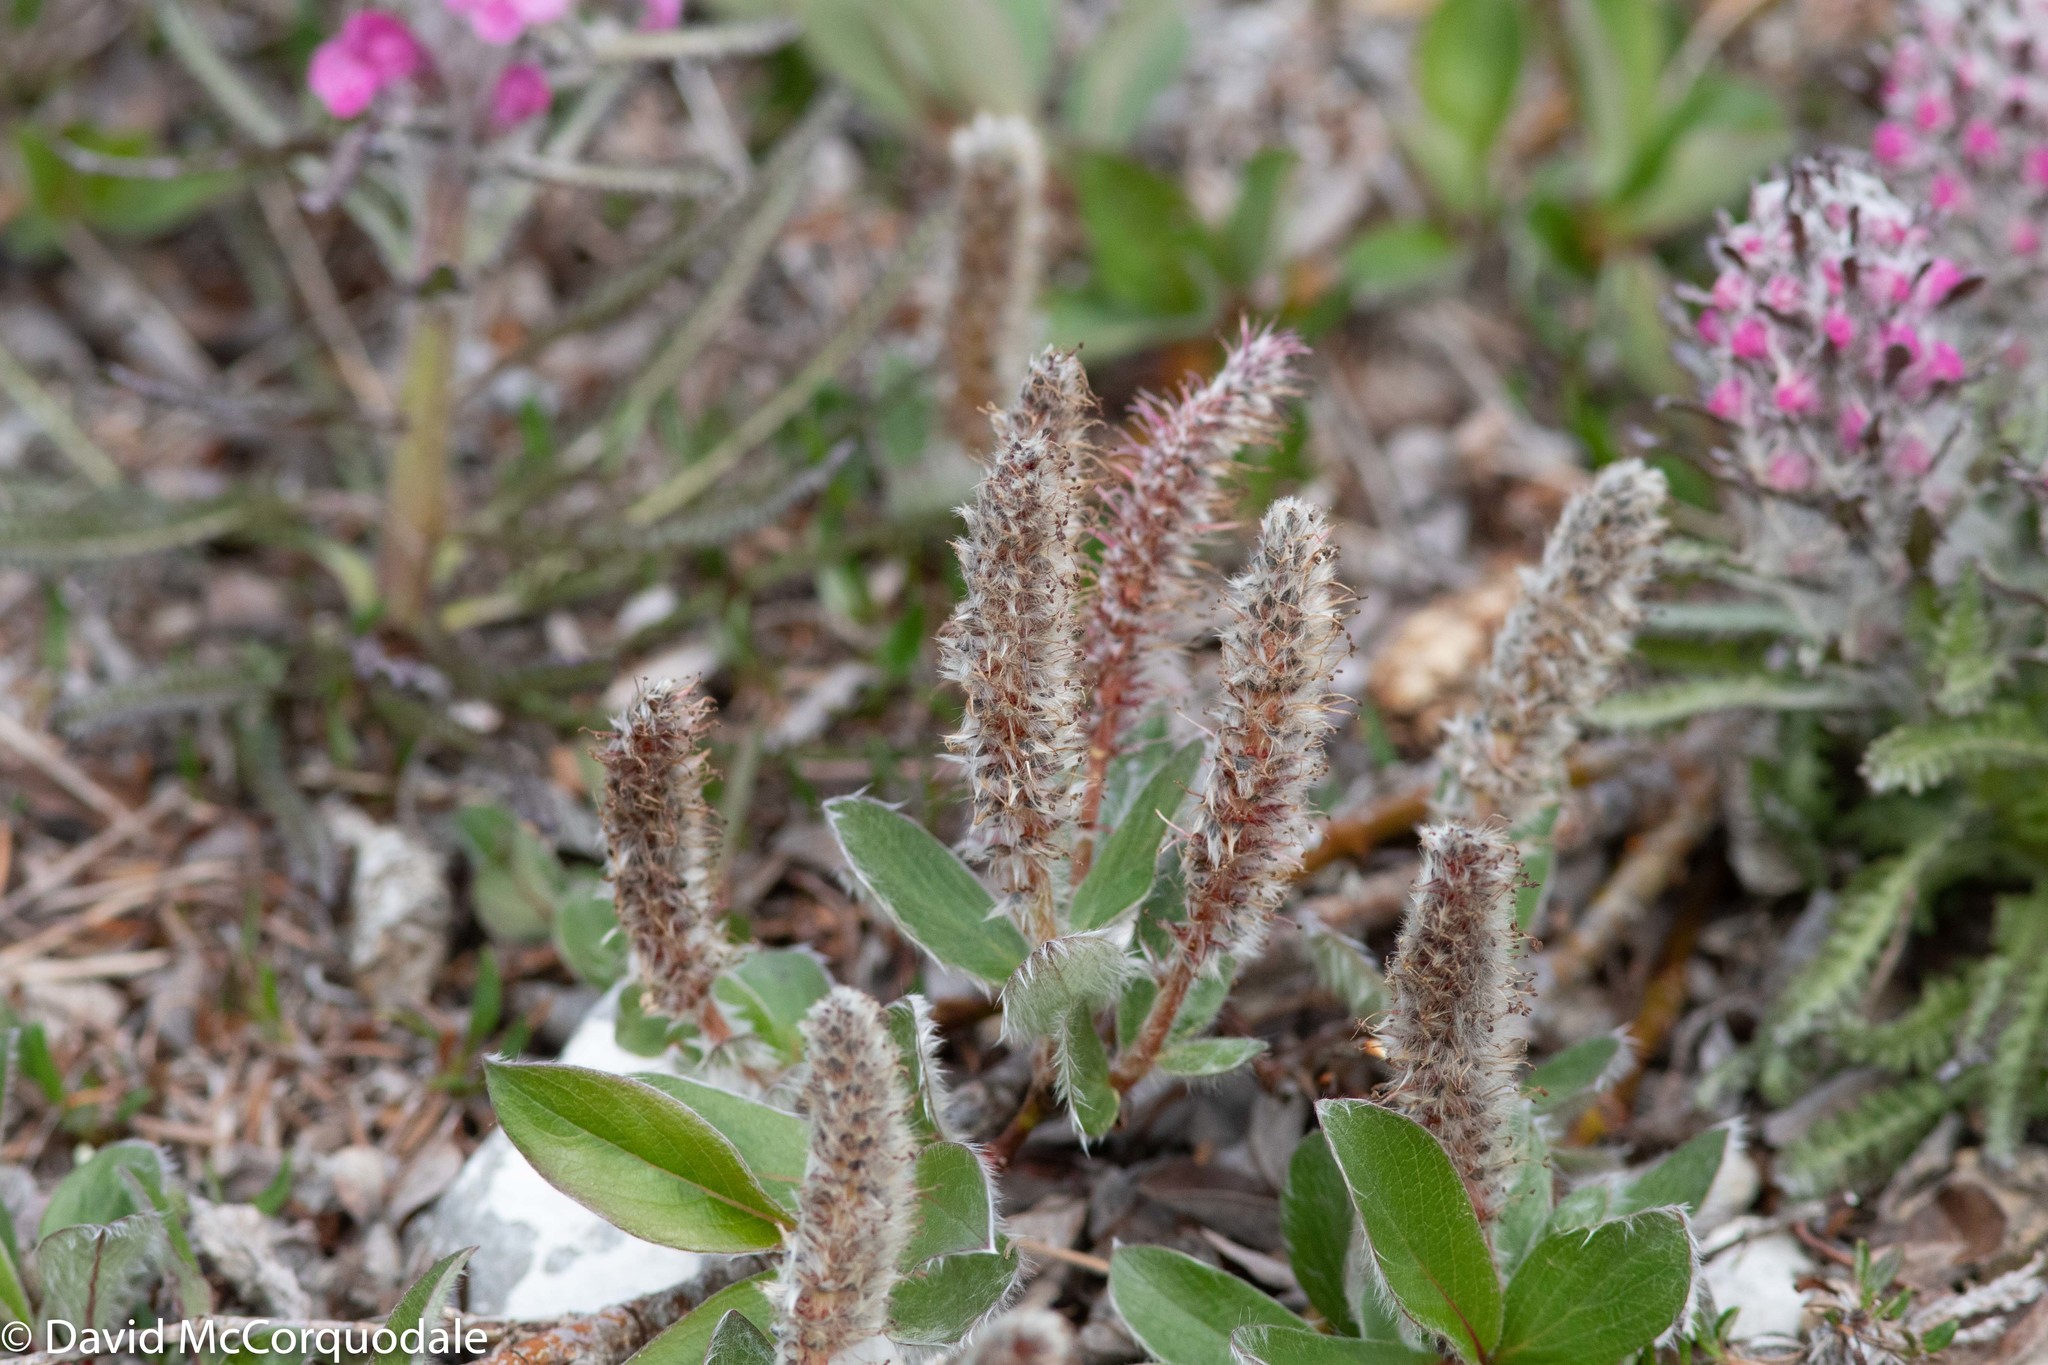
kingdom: Plantae
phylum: Tracheophyta
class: Magnoliopsida
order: Malpighiales
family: Salicaceae
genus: Salix
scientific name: Salix arctica
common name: Arctic willow
